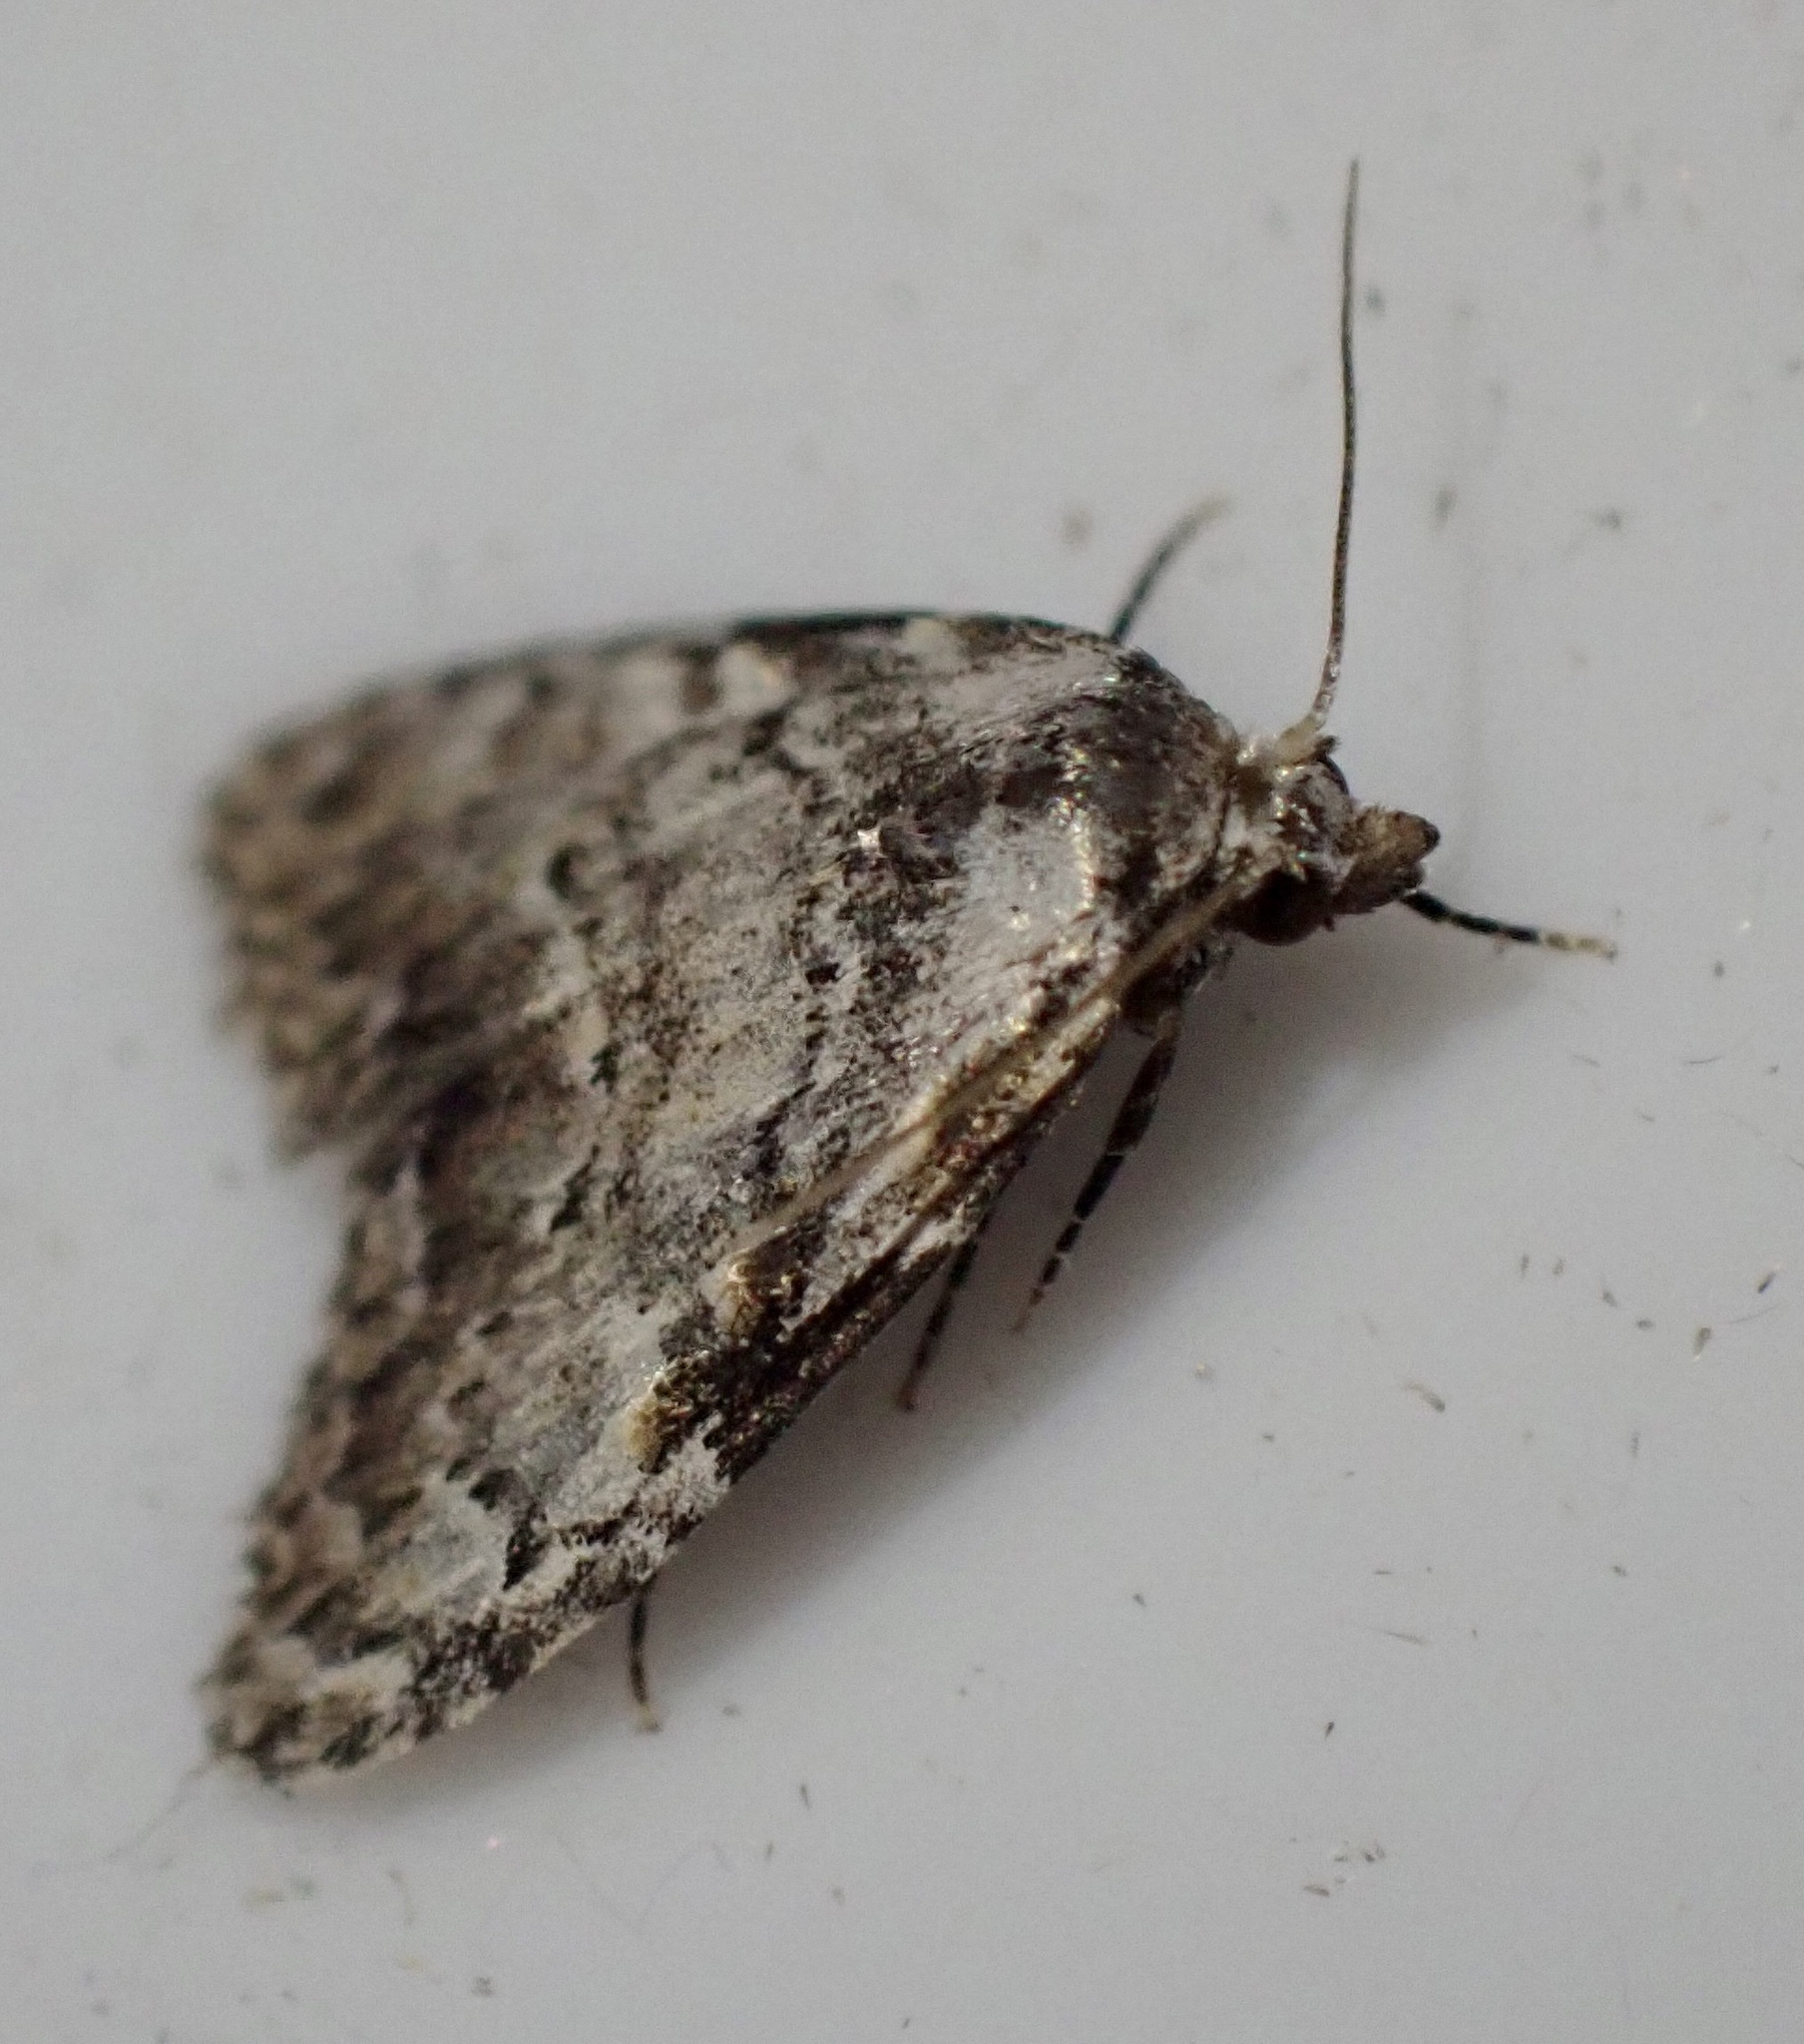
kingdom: Animalia
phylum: Arthropoda
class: Insecta
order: Lepidoptera
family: Nolidae
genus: Meganola
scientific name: Meganola strigula
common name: Small black arches
